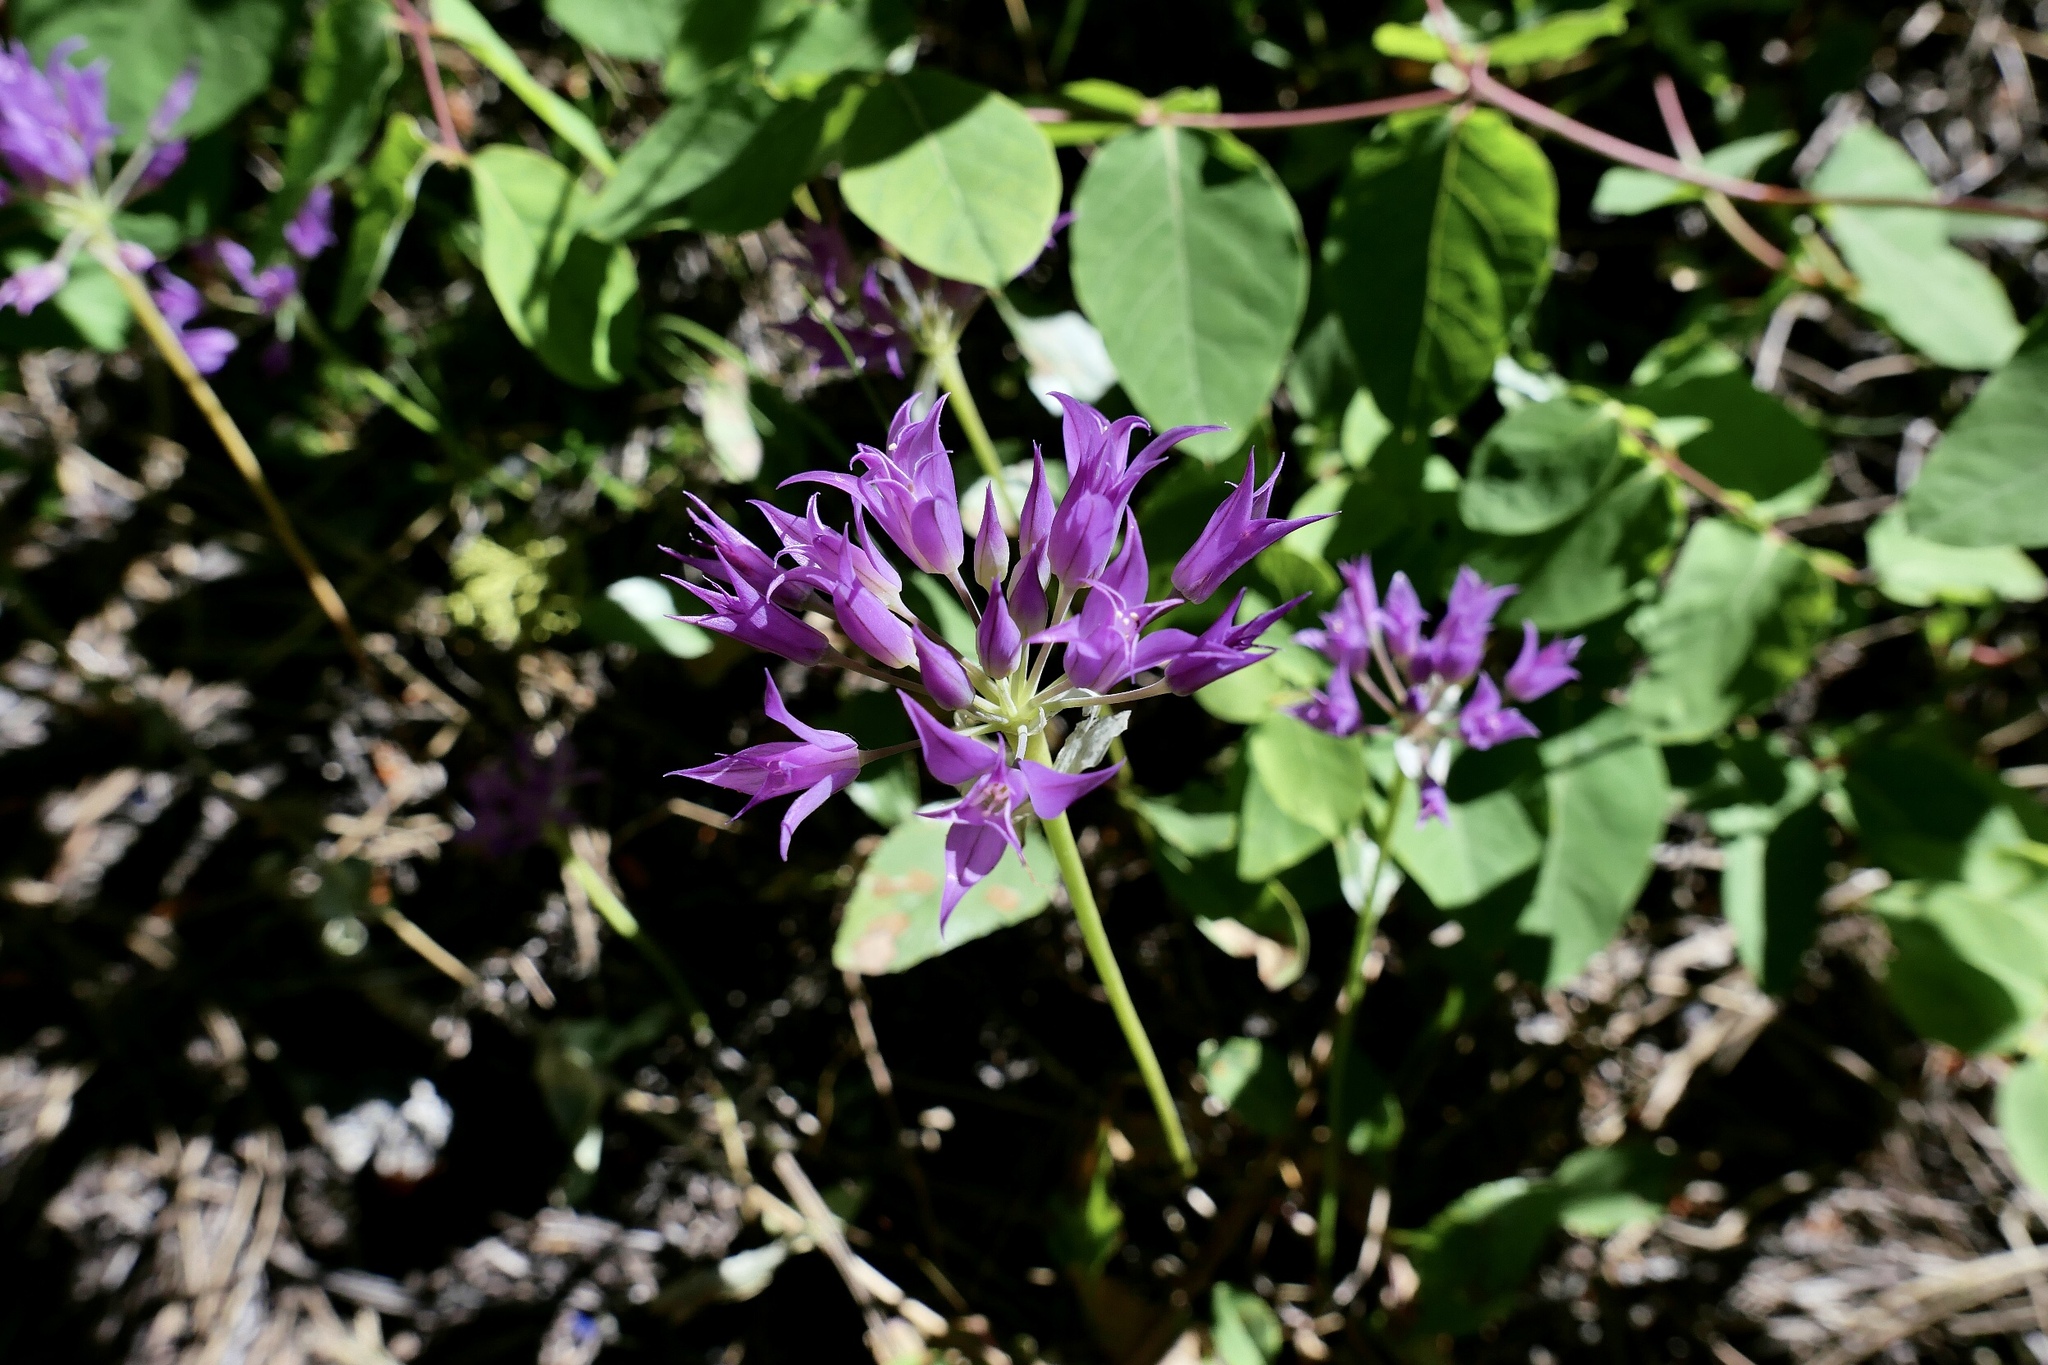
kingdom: Plantae
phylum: Tracheophyta
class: Liliopsida
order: Asparagales
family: Amaryllidaceae
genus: Allium
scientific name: Allium acuminatum
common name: Hooker's onion
